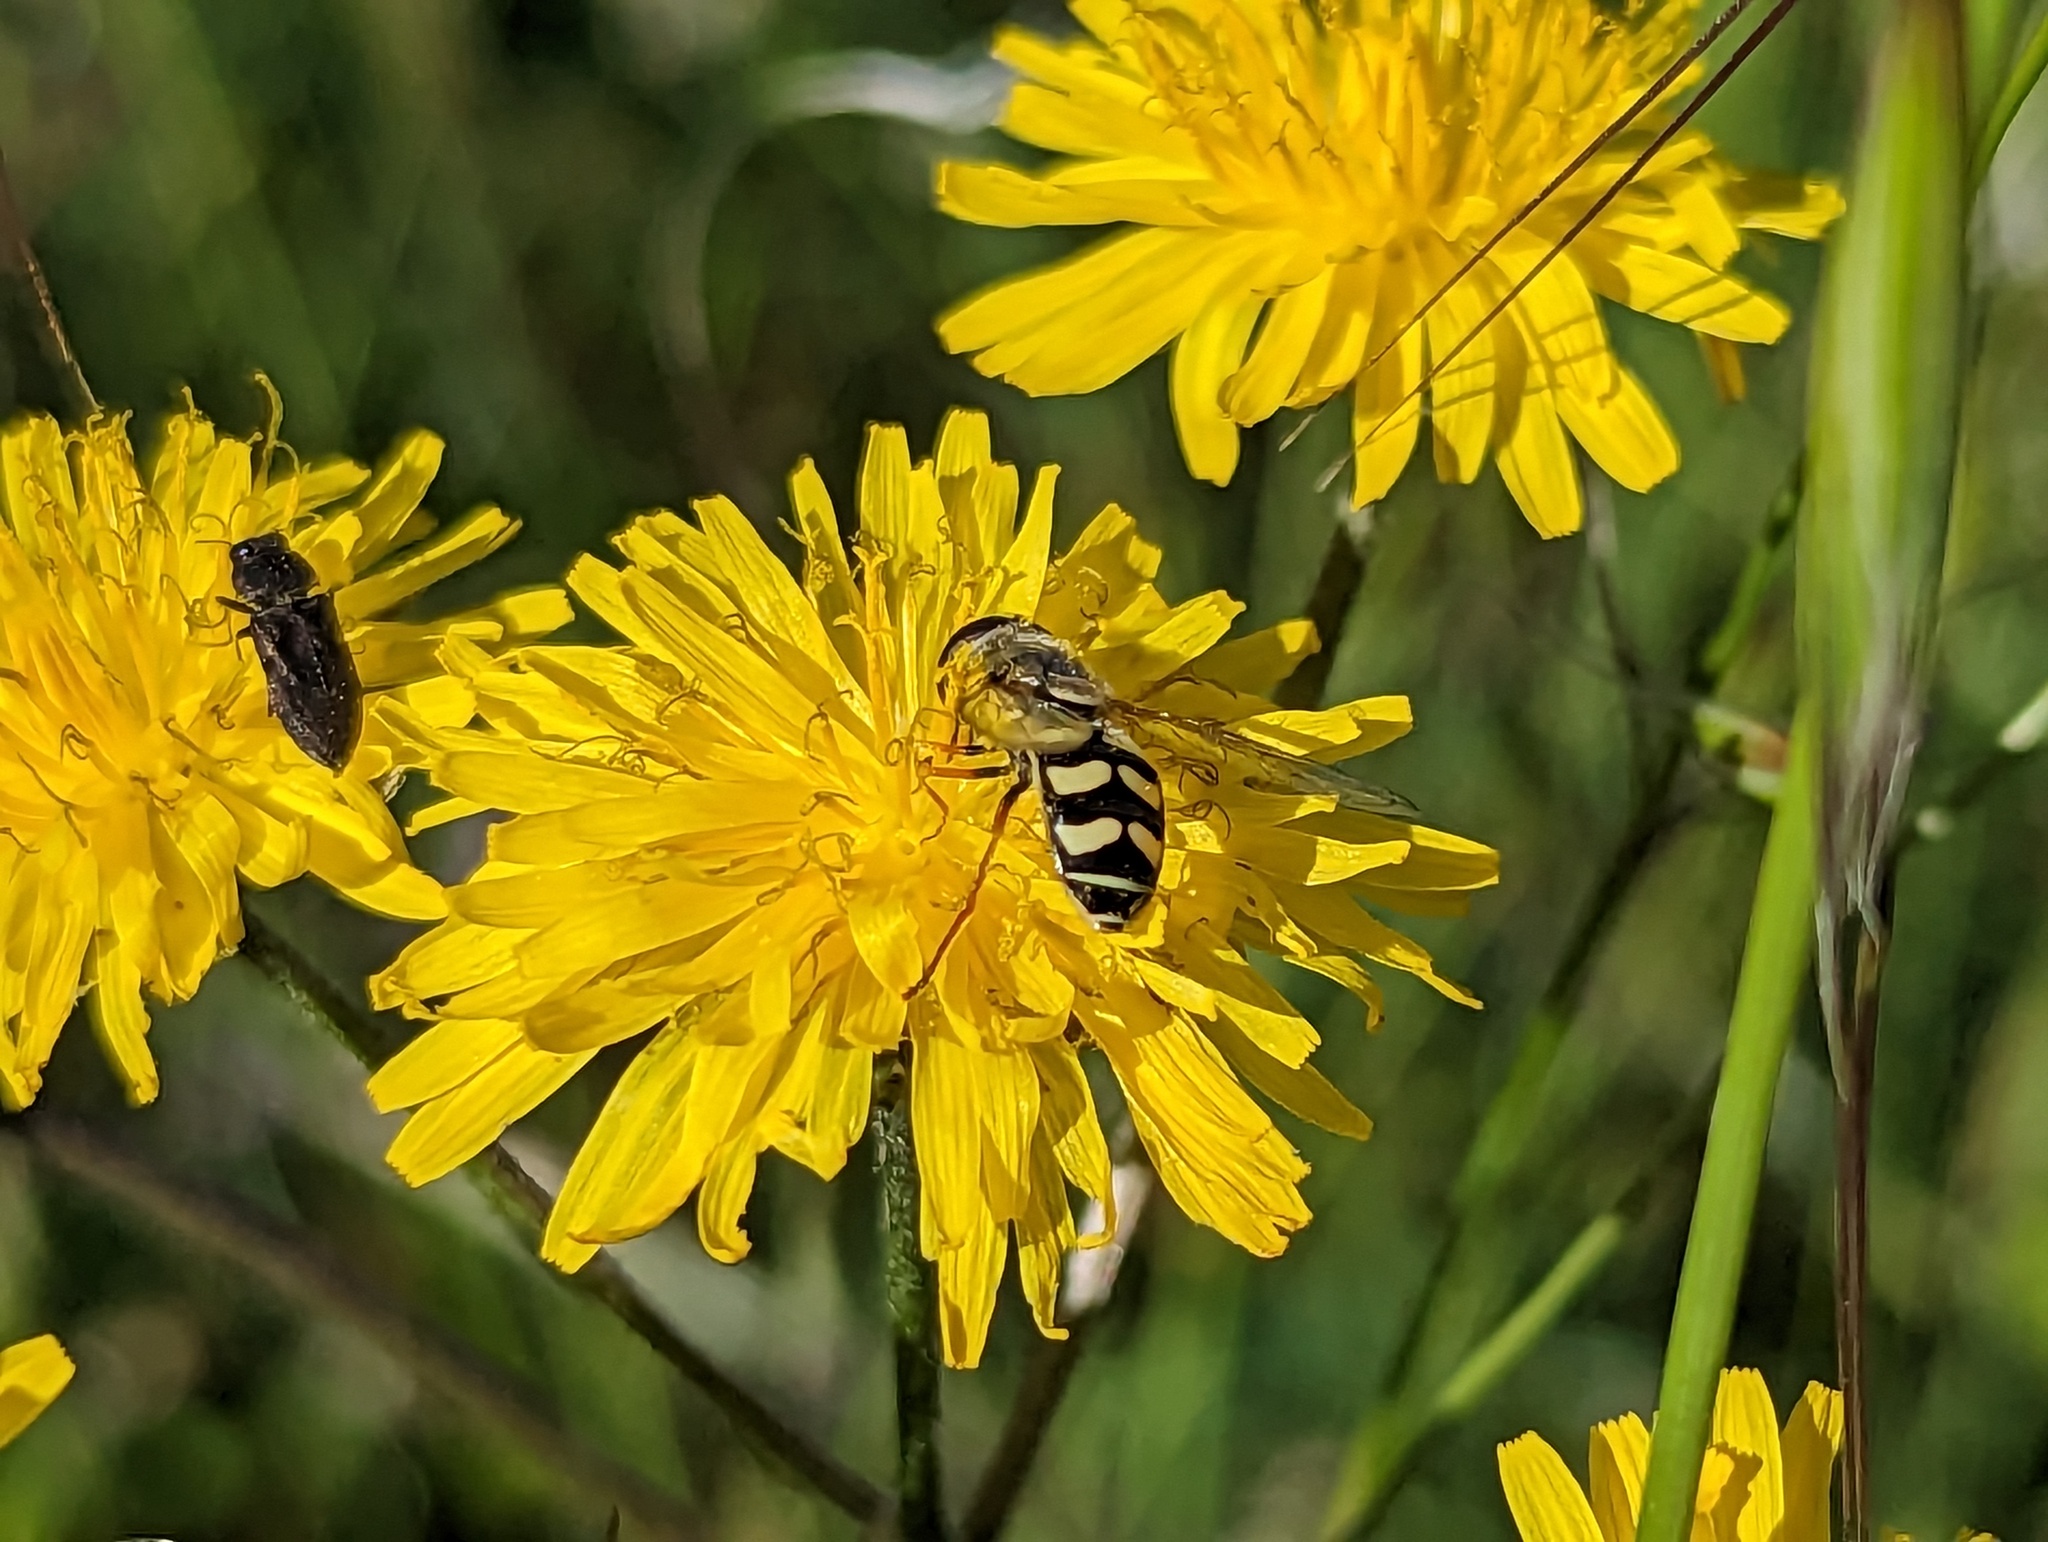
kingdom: Animalia
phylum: Arthropoda
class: Insecta
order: Diptera
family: Syrphidae
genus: Eupeodes
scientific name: Eupeodes volucris
